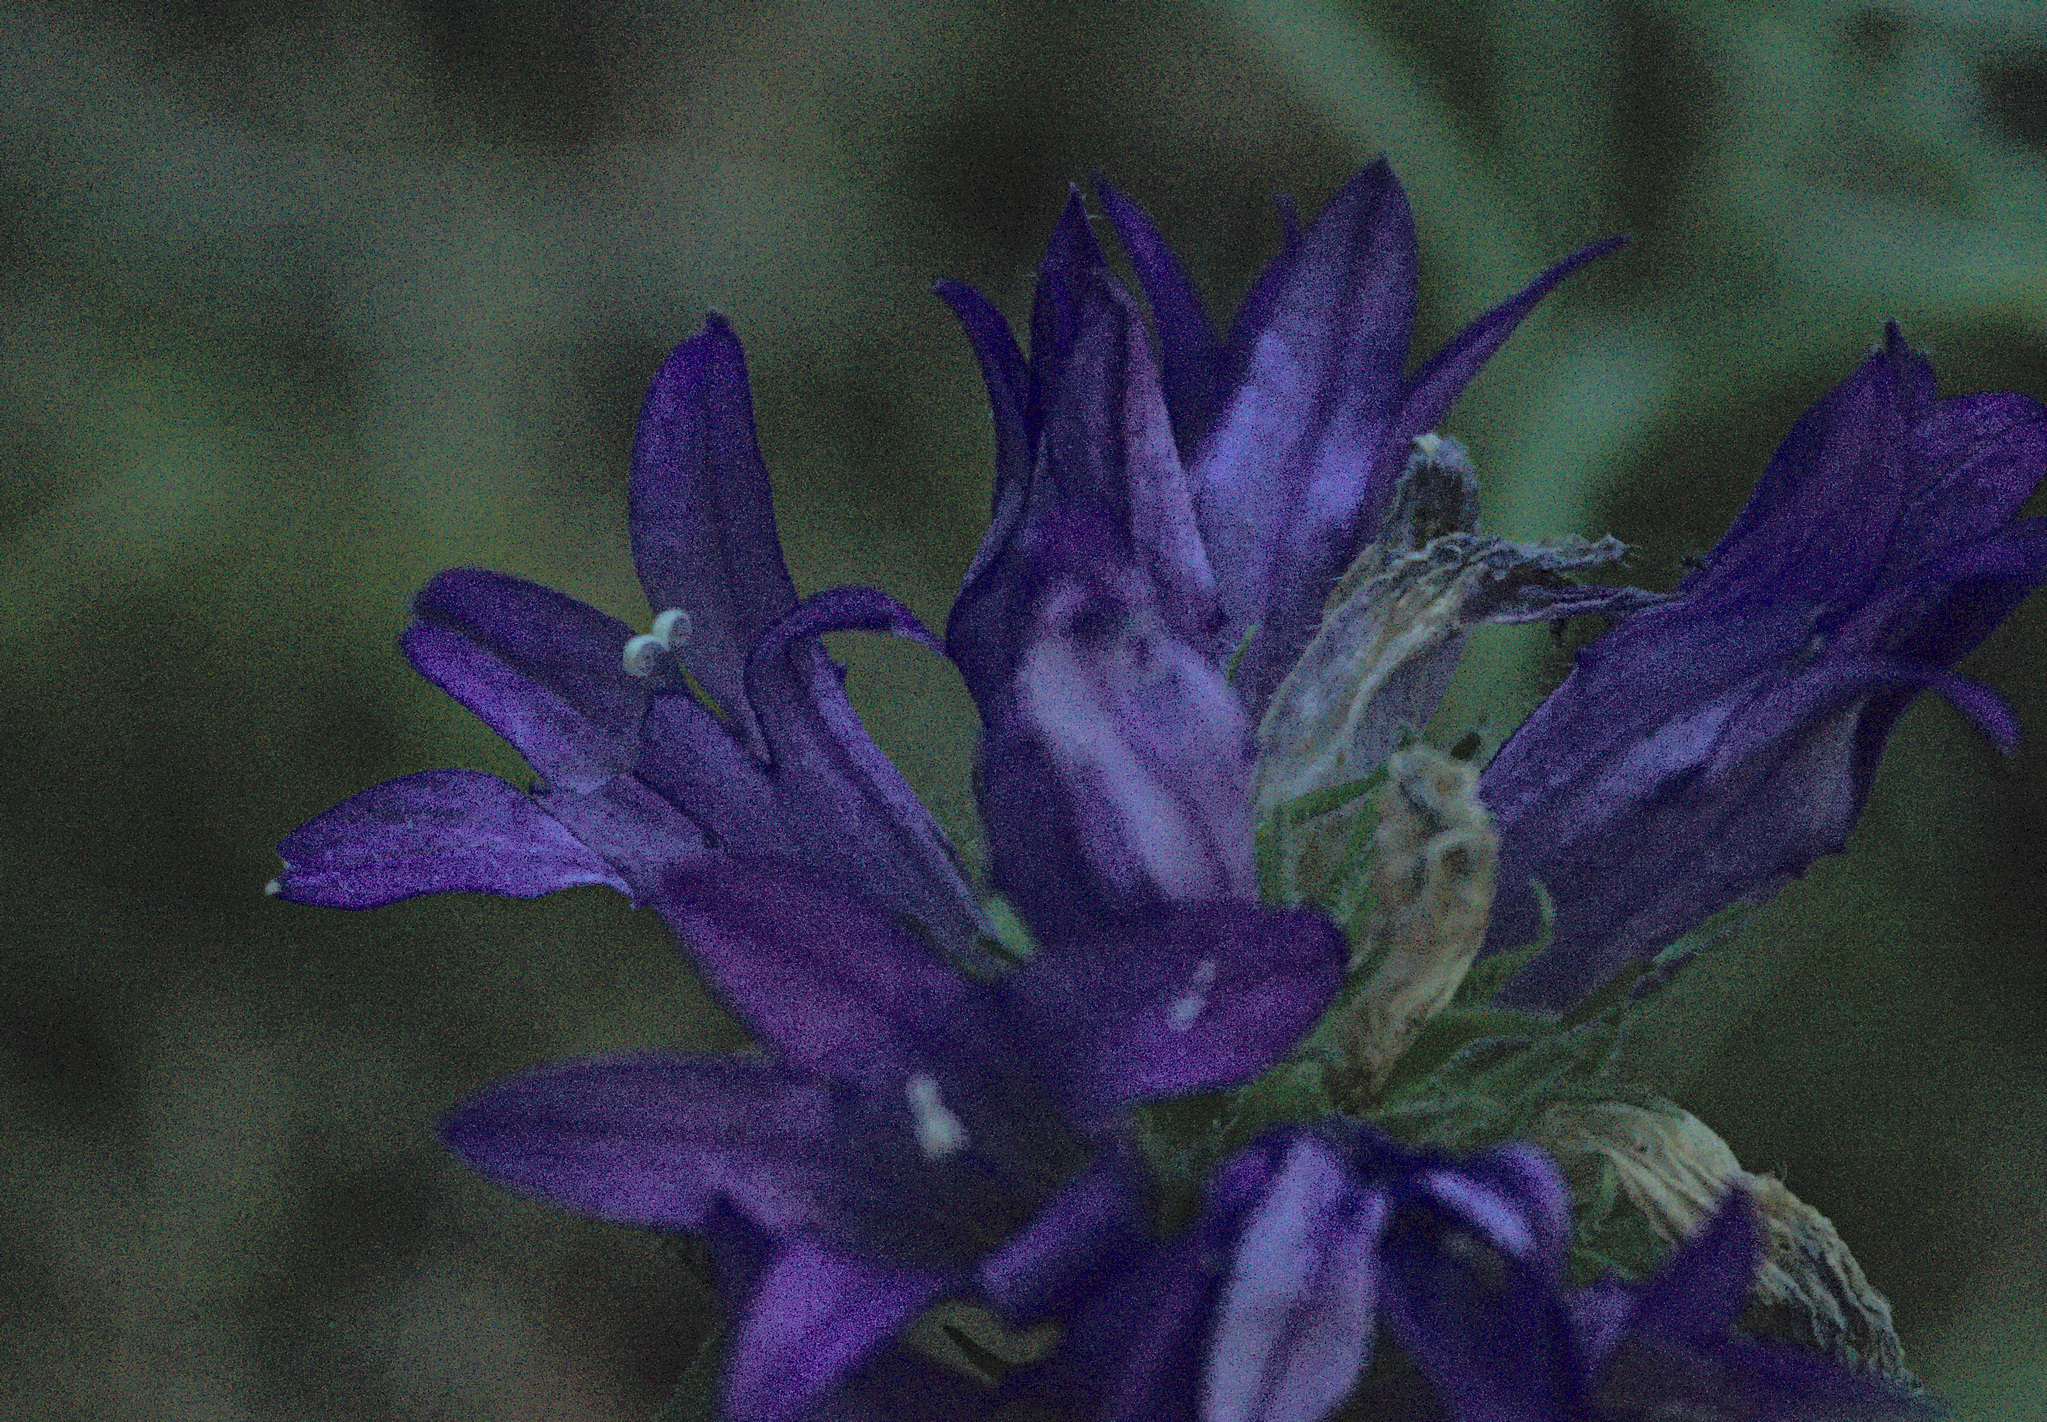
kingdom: Plantae
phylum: Tracheophyta
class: Magnoliopsida
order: Asterales
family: Campanulaceae
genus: Campanula
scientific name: Campanula glomerata
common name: Clustered bellflower
